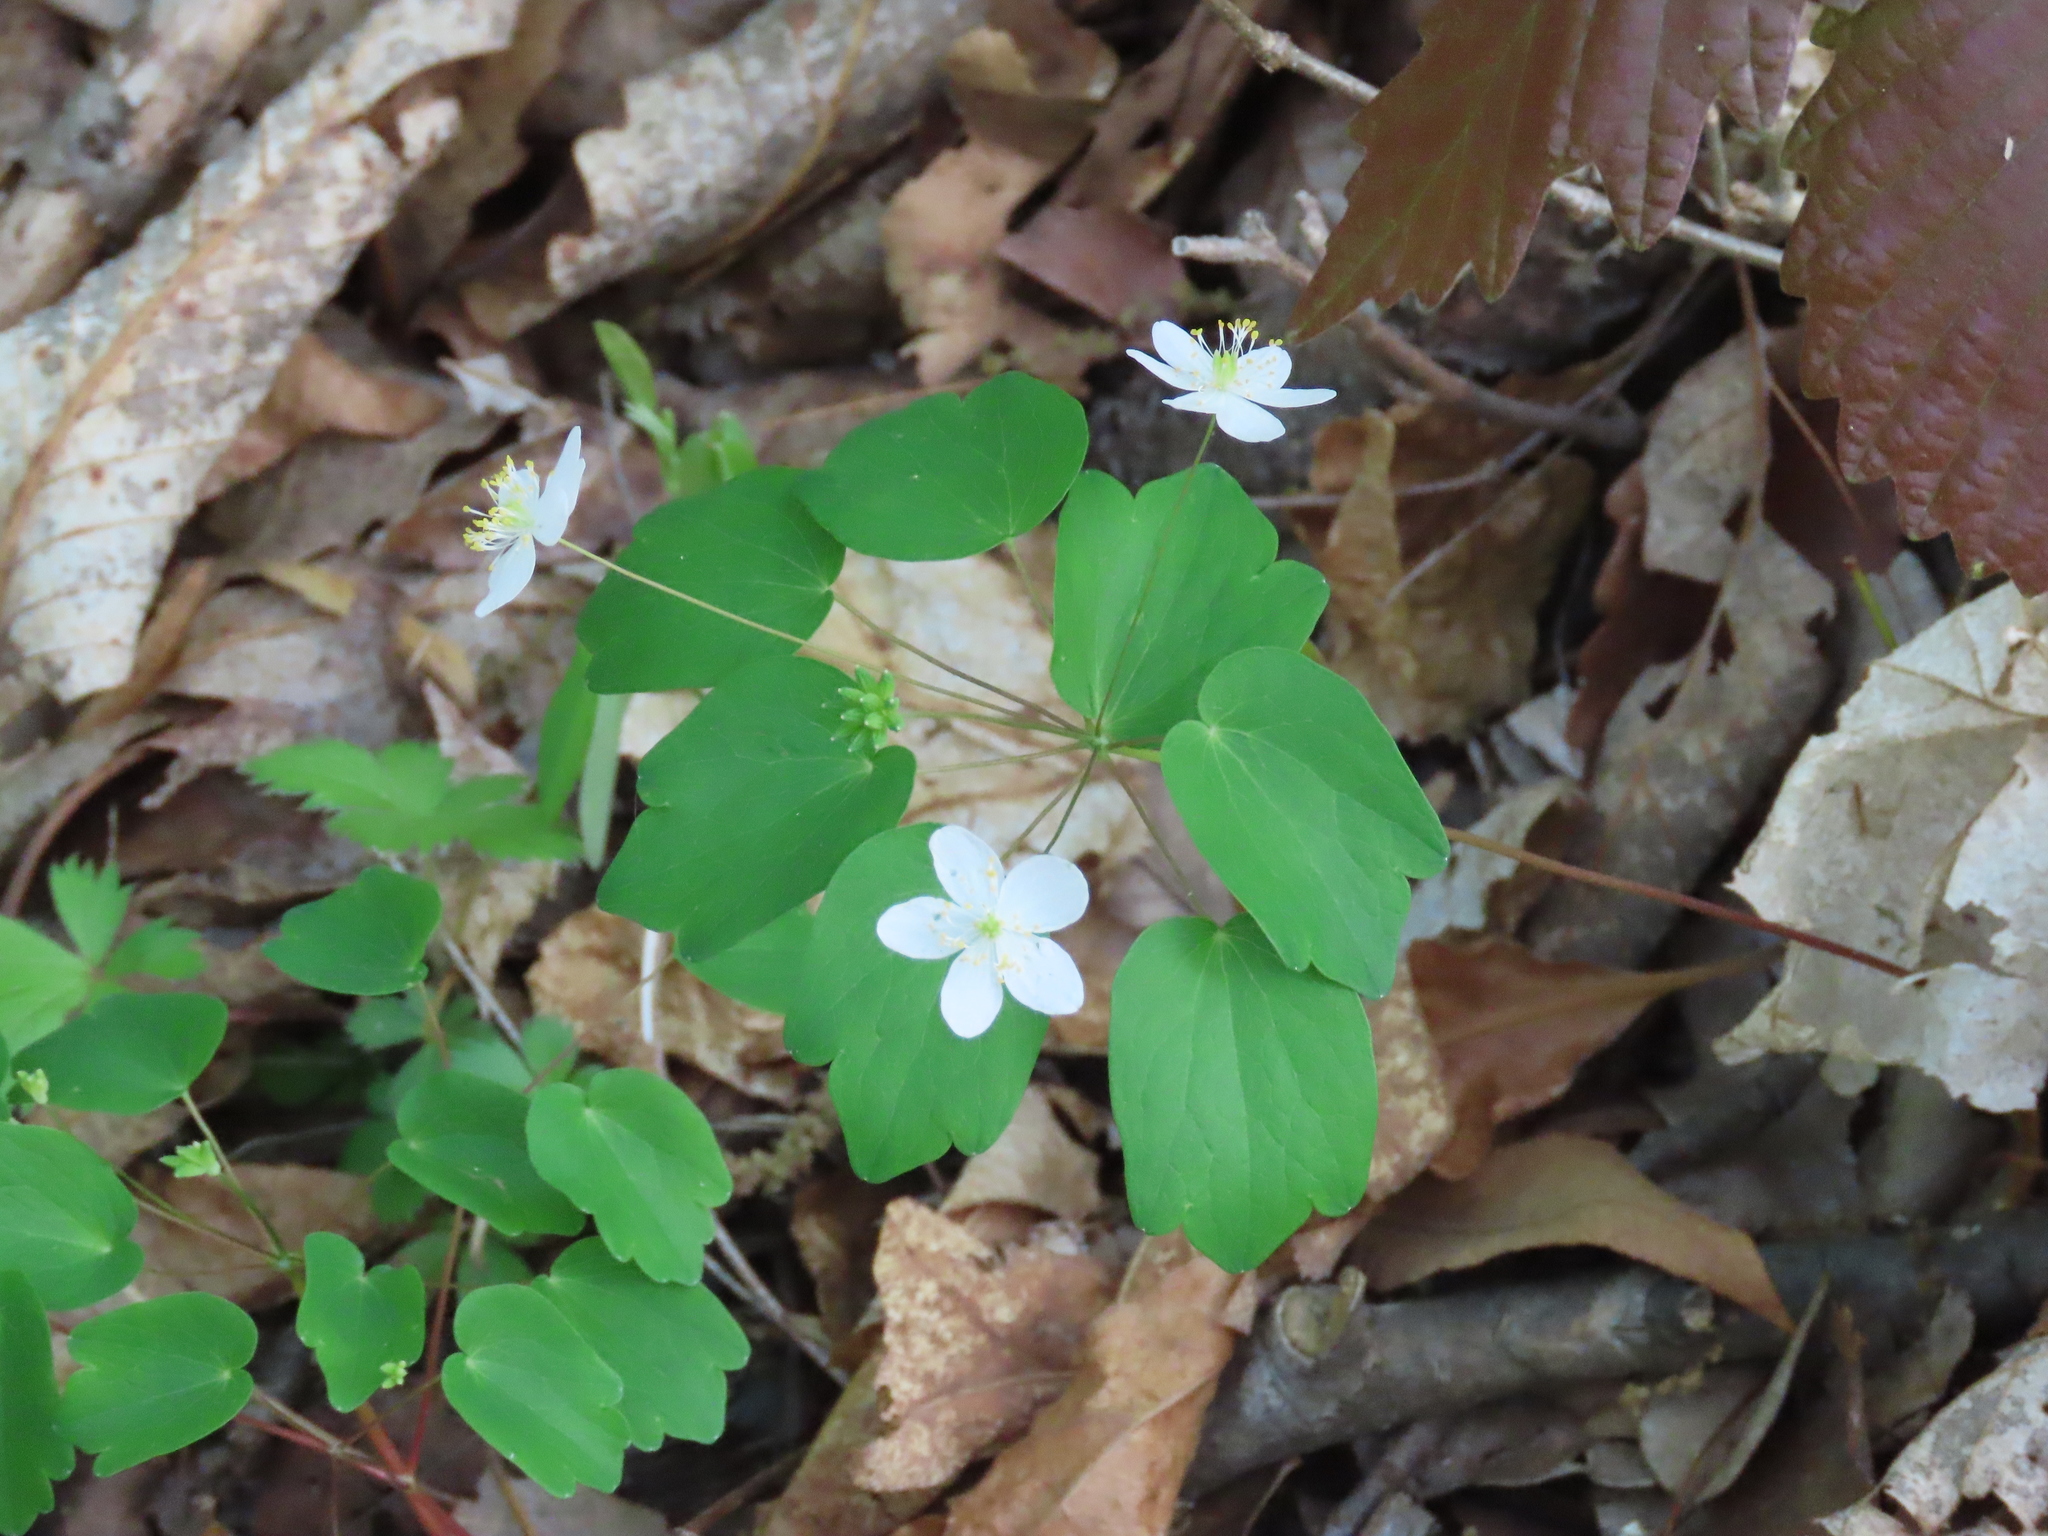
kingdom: Plantae
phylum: Tracheophyta
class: Magnoliopsida
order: Ranunculales
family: Ranunculaceae
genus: Thalictrum
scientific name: Thalictrum thalictroides
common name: Rue-anemone
